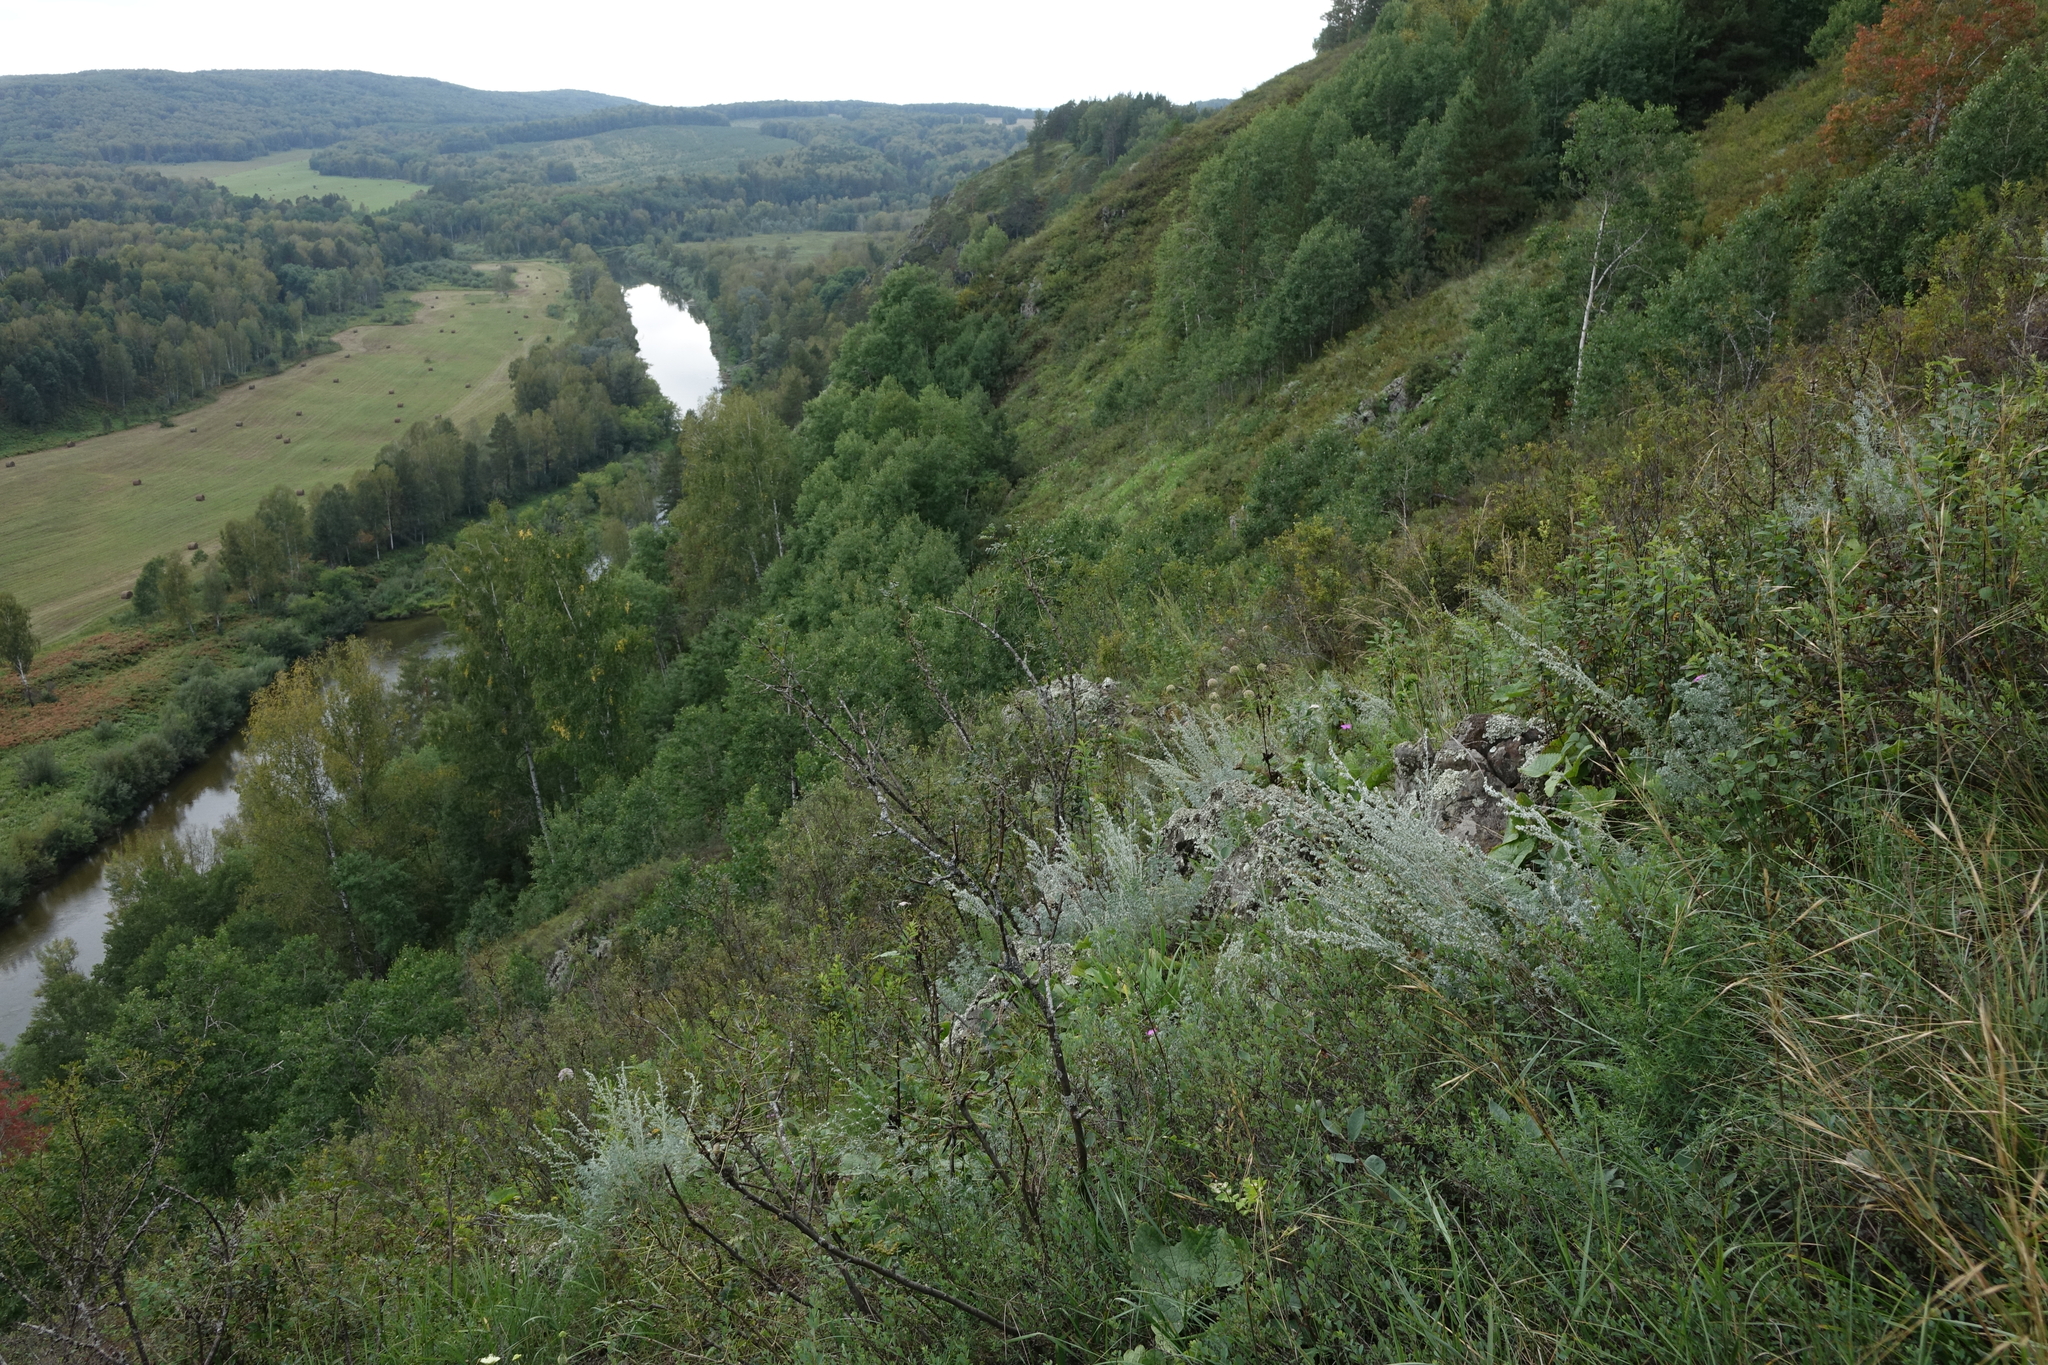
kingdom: Plantae
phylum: Tracheophyta
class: Magnoliopsida
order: Asterales
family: Asteraceae
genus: Artemisia
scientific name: Artemisia frigida
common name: Prairie sagewort
